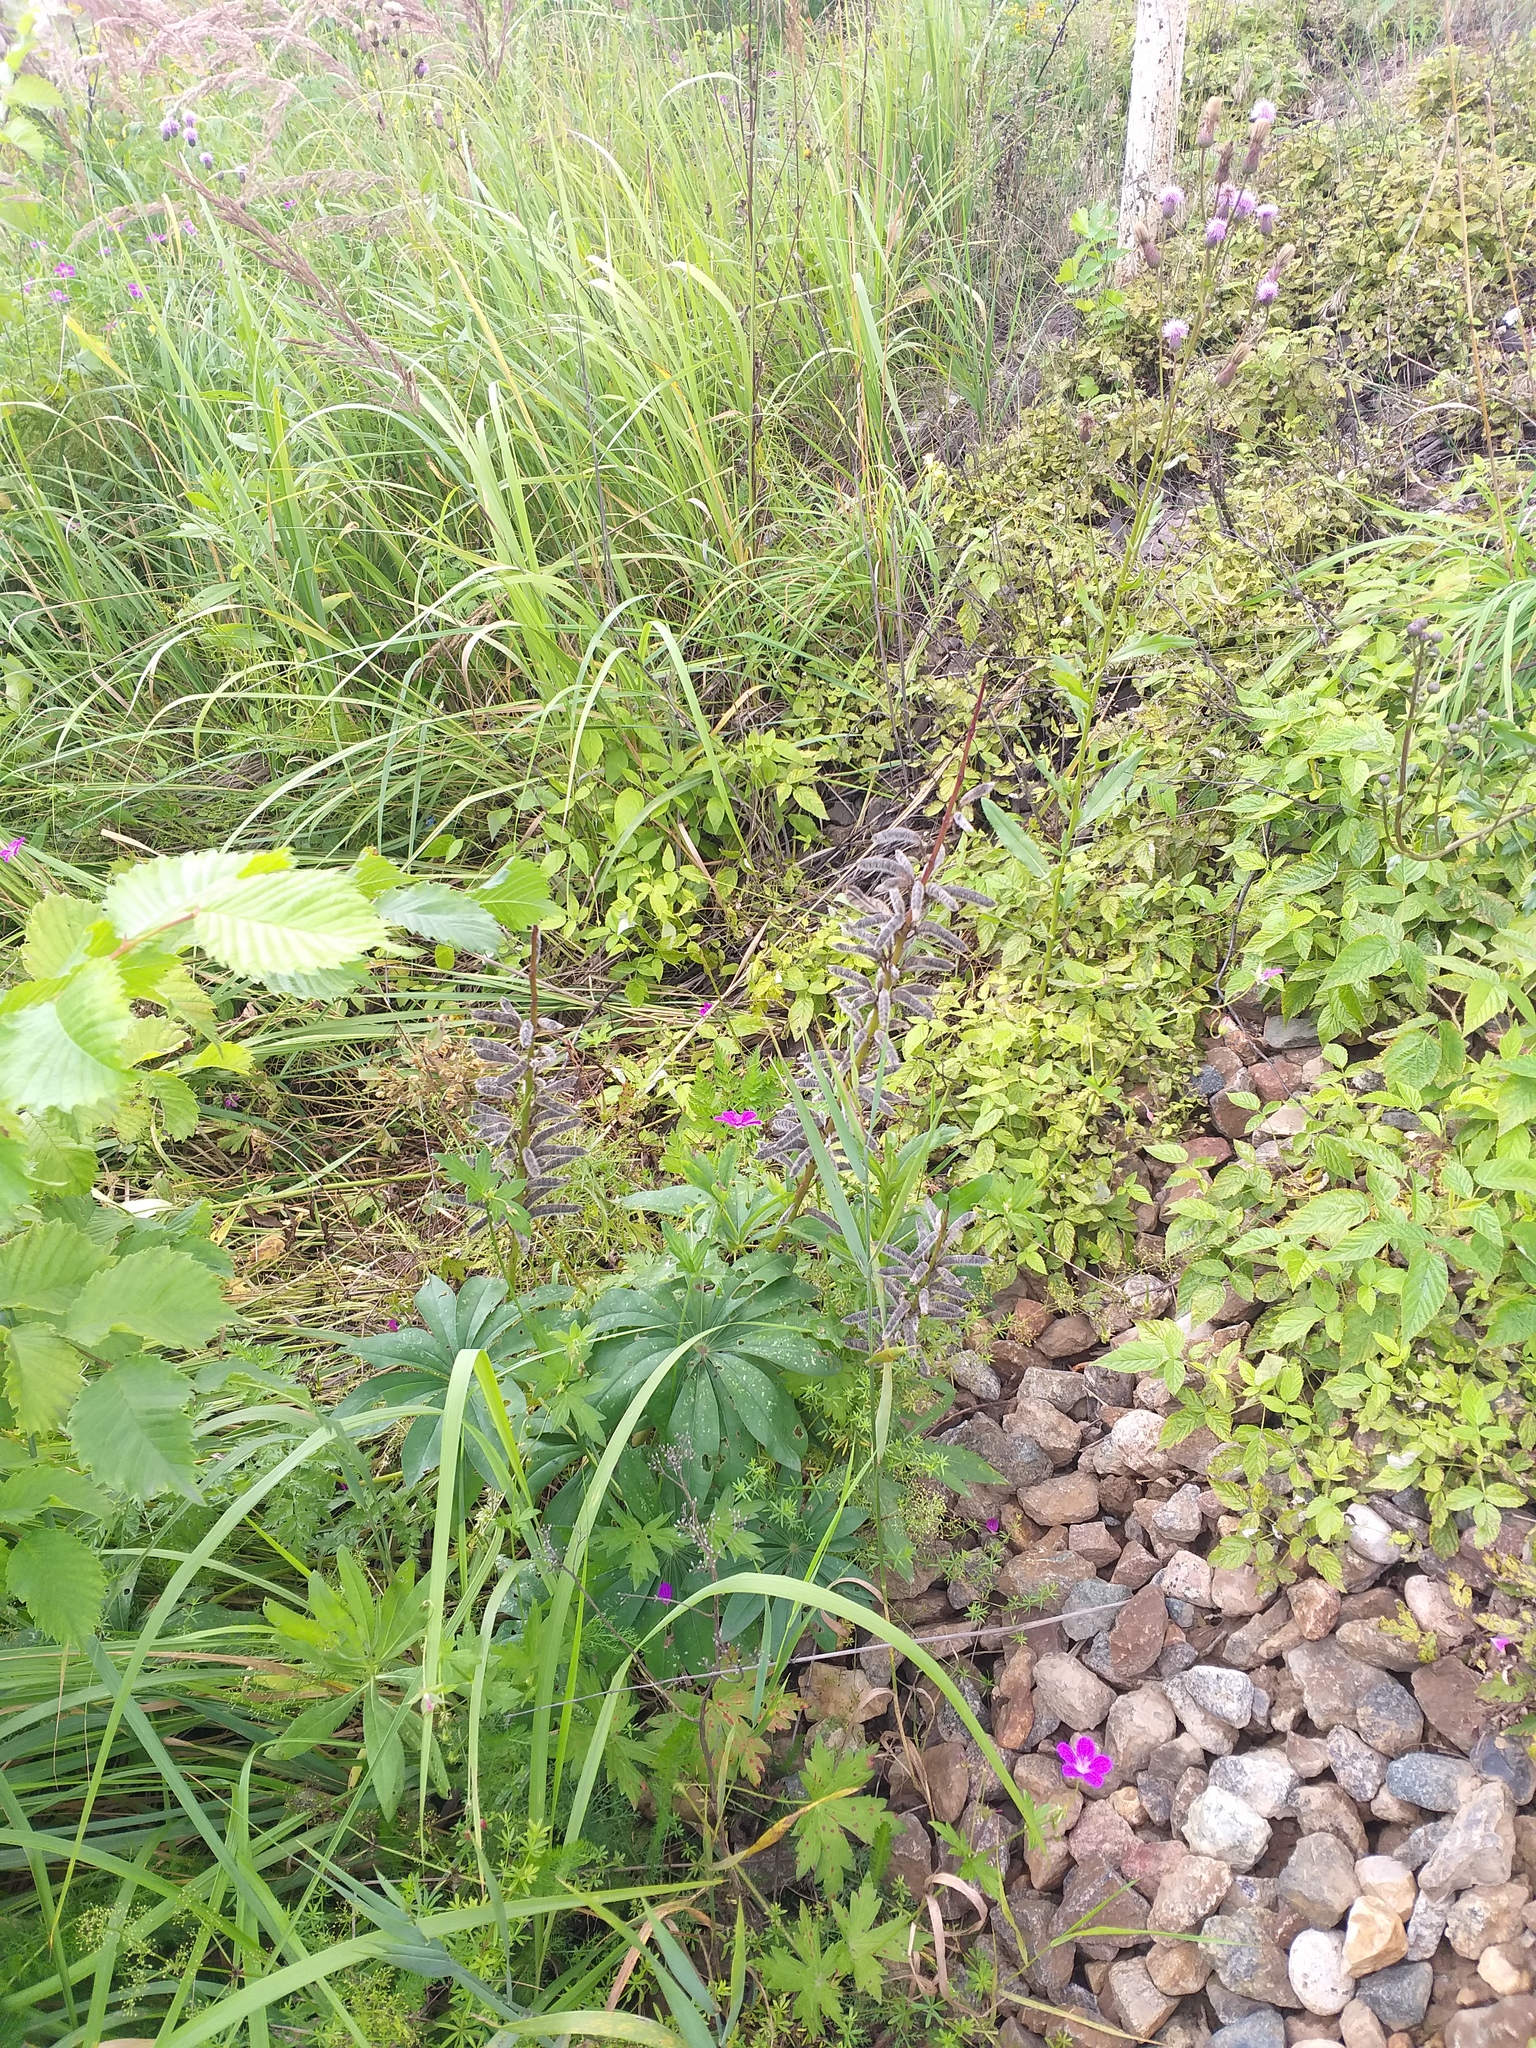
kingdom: Plantae
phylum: Tracheophyta
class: Magnoliopsida
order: Fabales
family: Fabaceae
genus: Lupinus
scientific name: Lupinus polyphyllus
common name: Garden lupin
